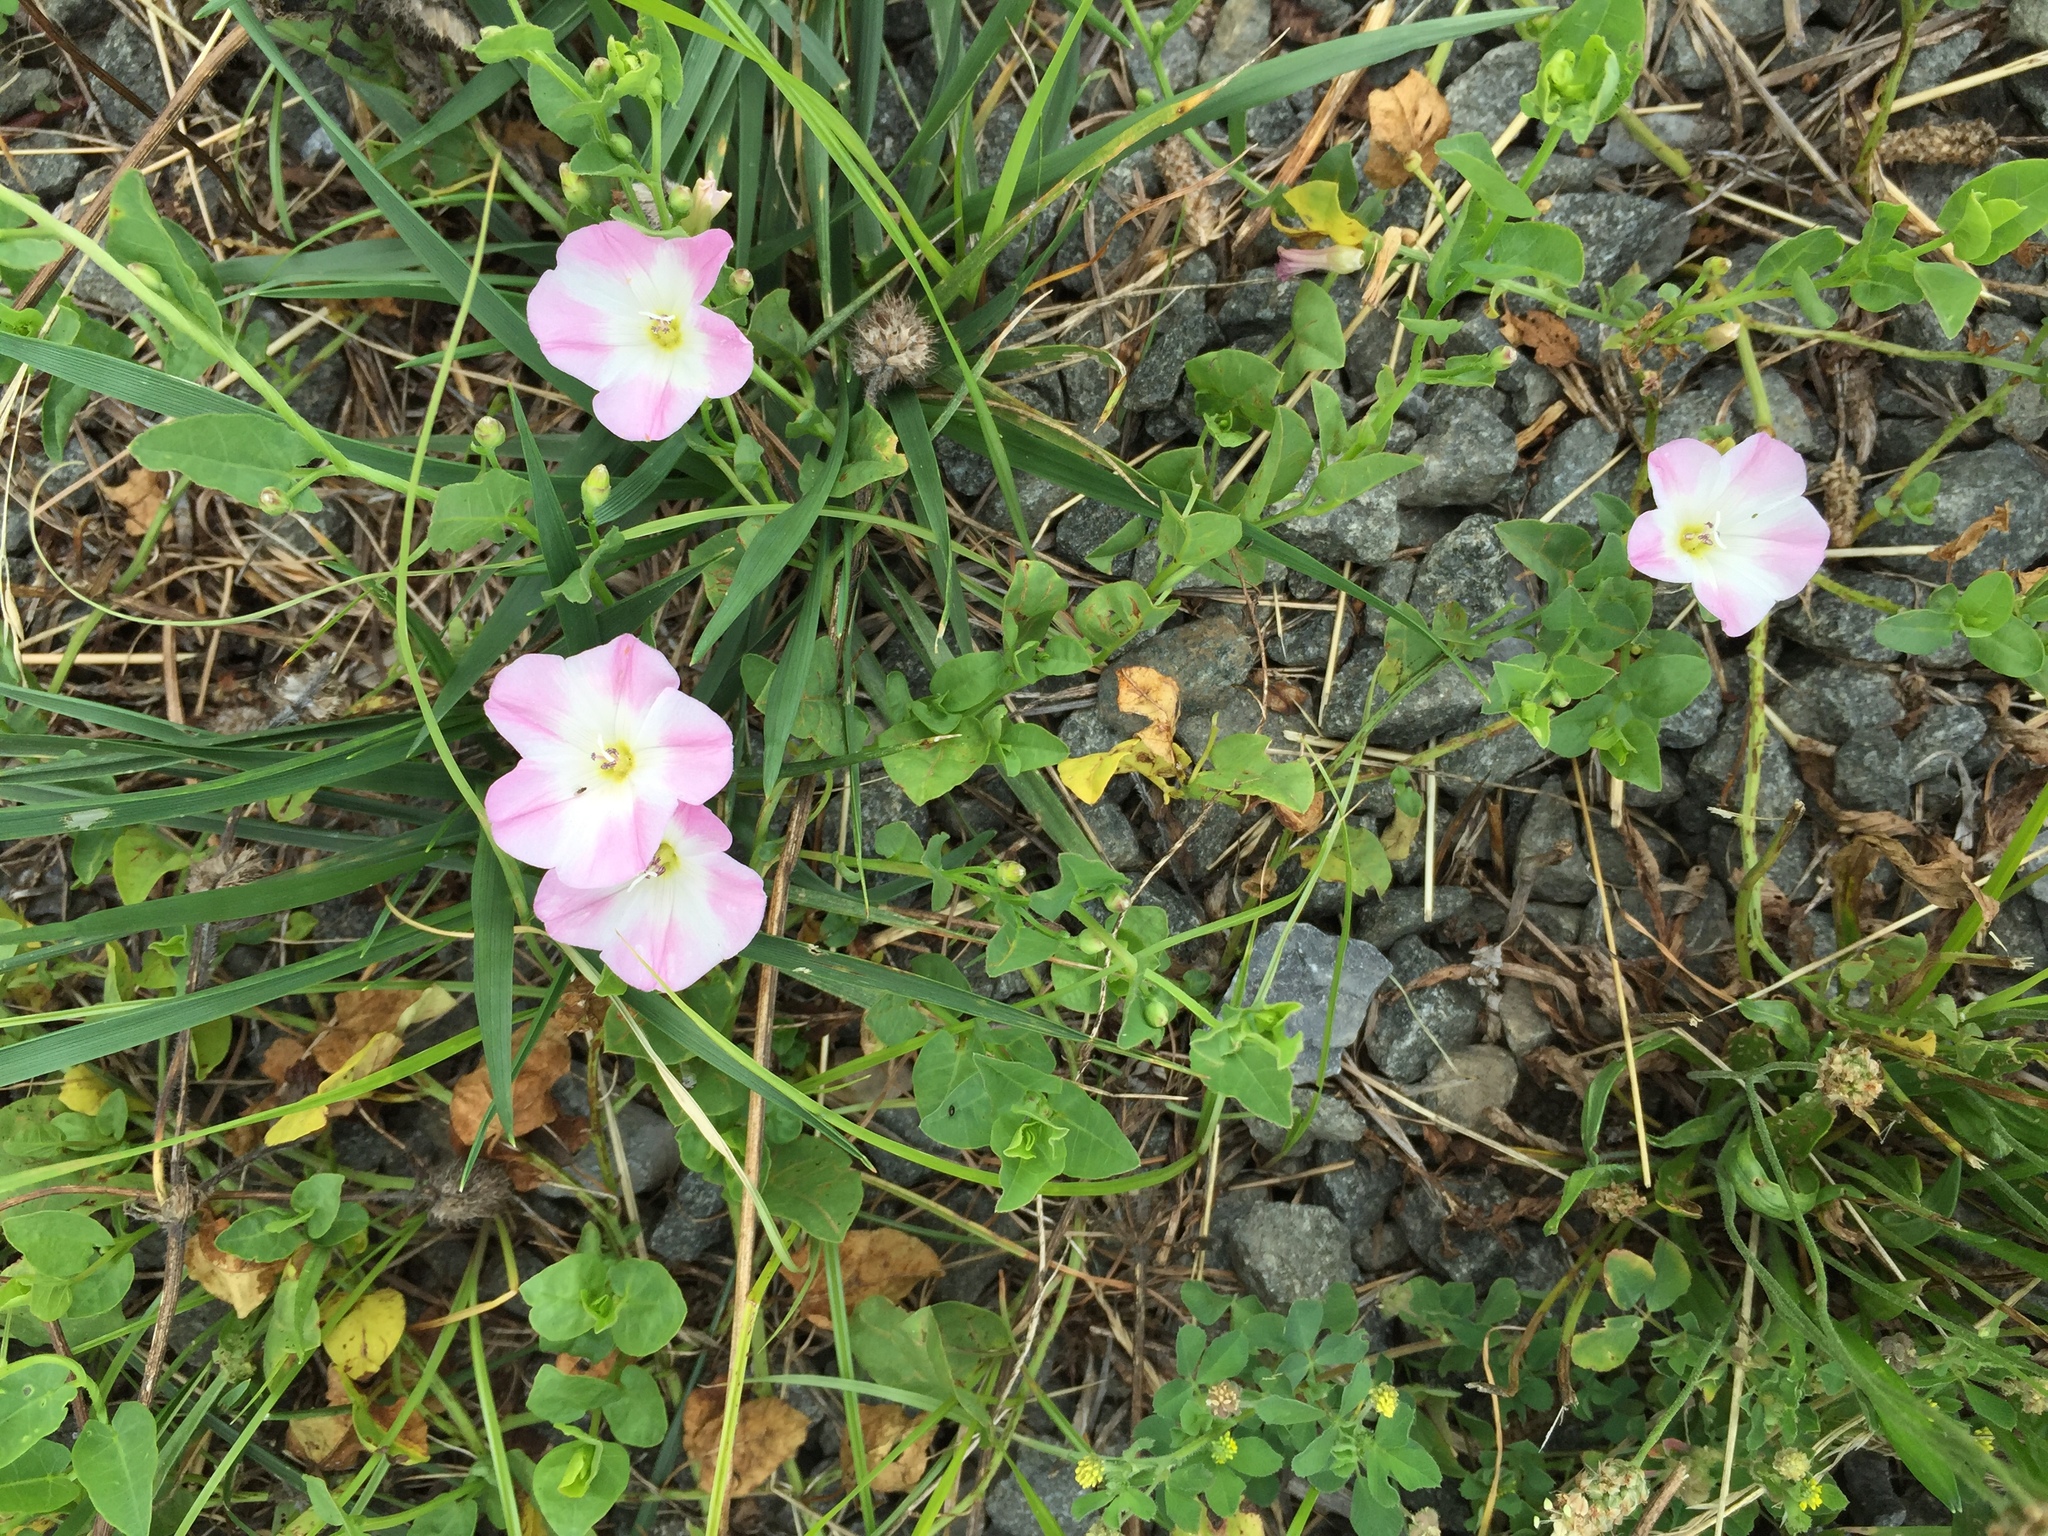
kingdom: Plantae
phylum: Tracheophyta
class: Magnoliopsida
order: Solanales
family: Convolvulaceae
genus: Convolvulus
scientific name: Convolvulus arvensis
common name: Field bindweed
